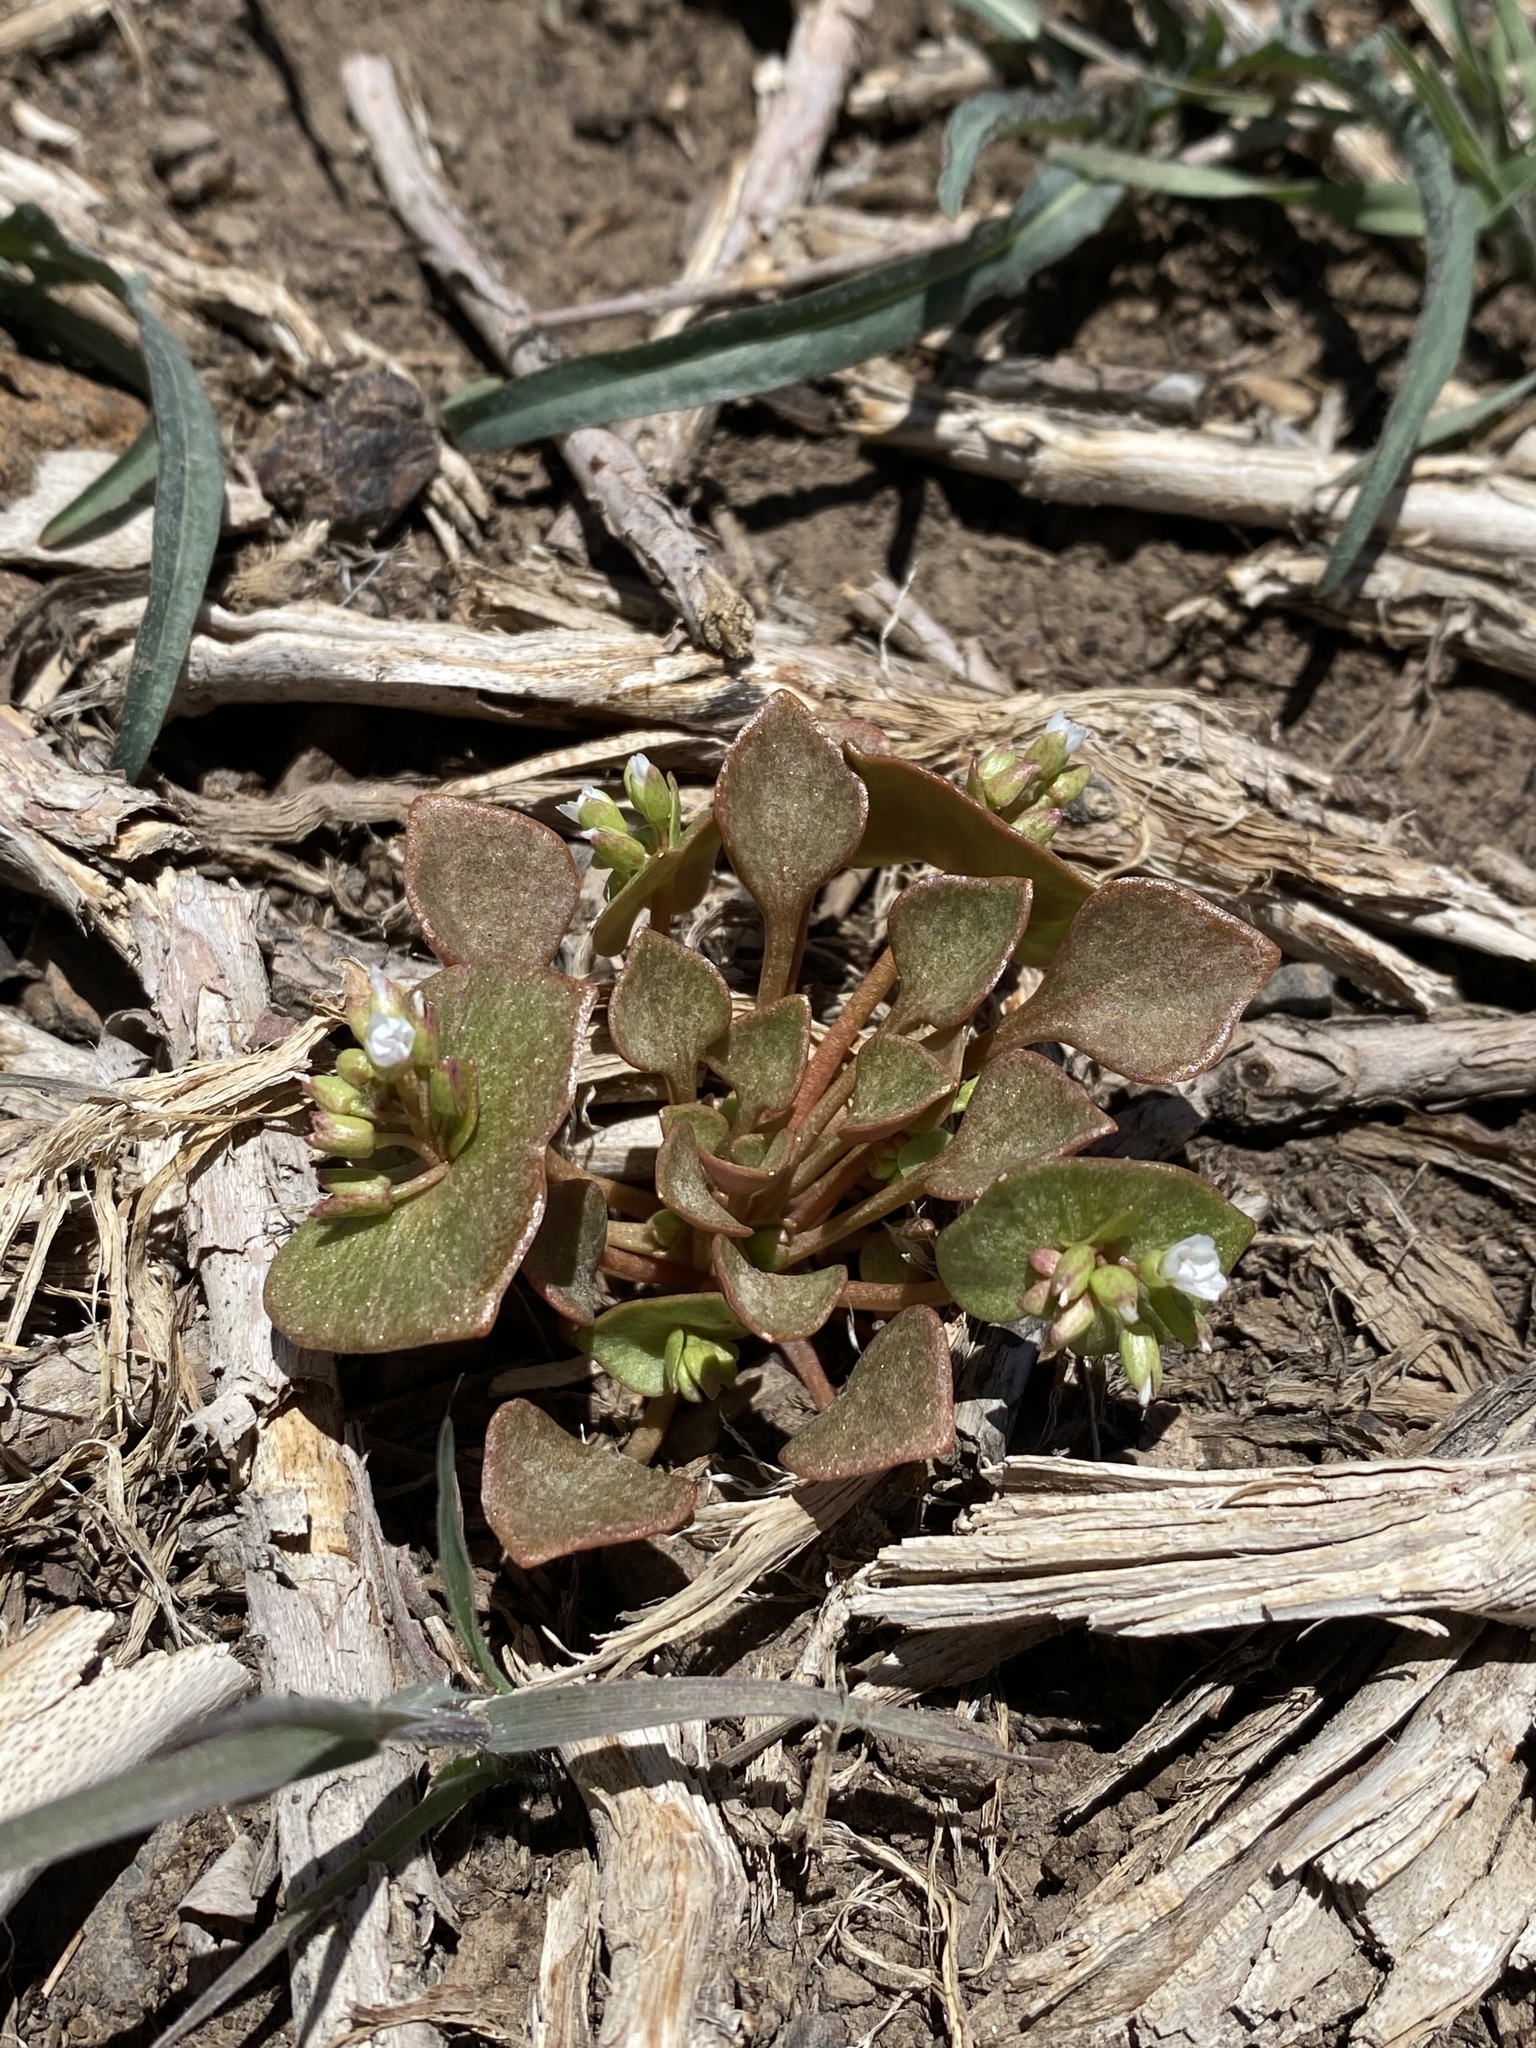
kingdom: Plantae
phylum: Tracheophyta
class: Magnoliopsida
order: Caryophyllales
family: Montiaceae
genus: Claytonia
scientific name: Claytonia rubra
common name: Erubescent miner's-lettuce
